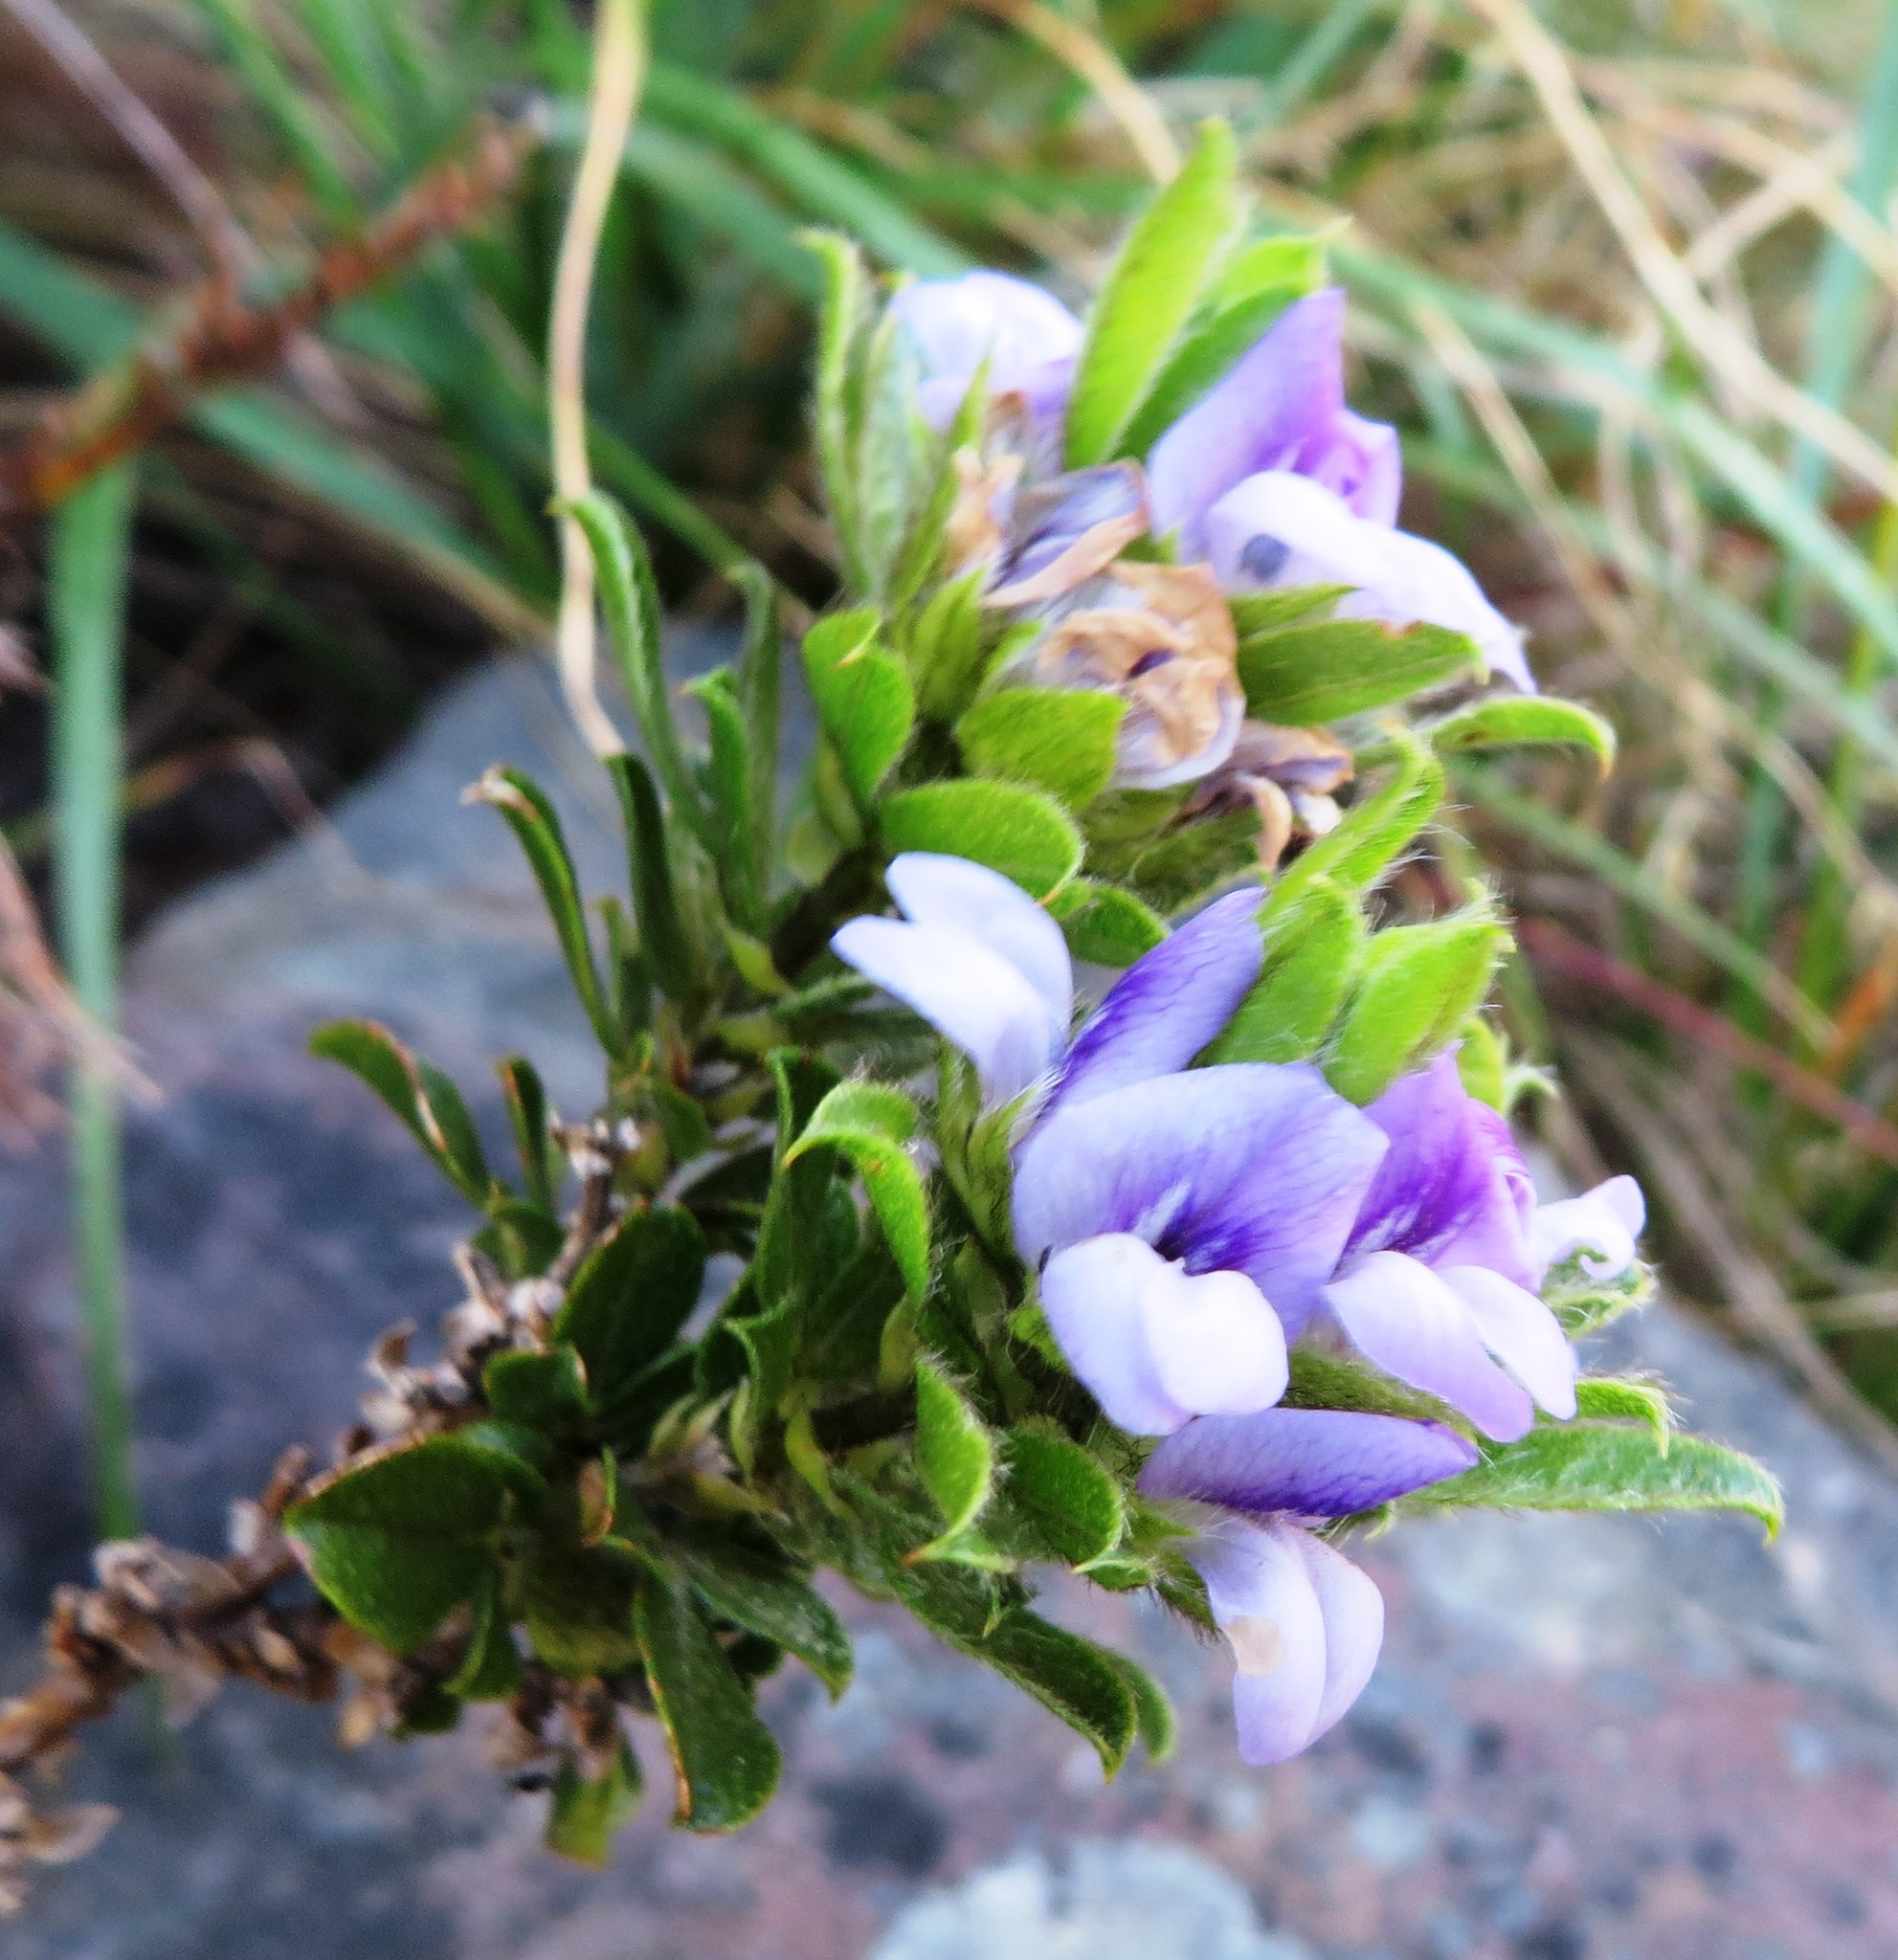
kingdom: Plantae
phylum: Tracheophyta
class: Magnoliopsida
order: Fabales
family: Fabaceae
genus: Psoralea
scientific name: Psoralea obliqua
